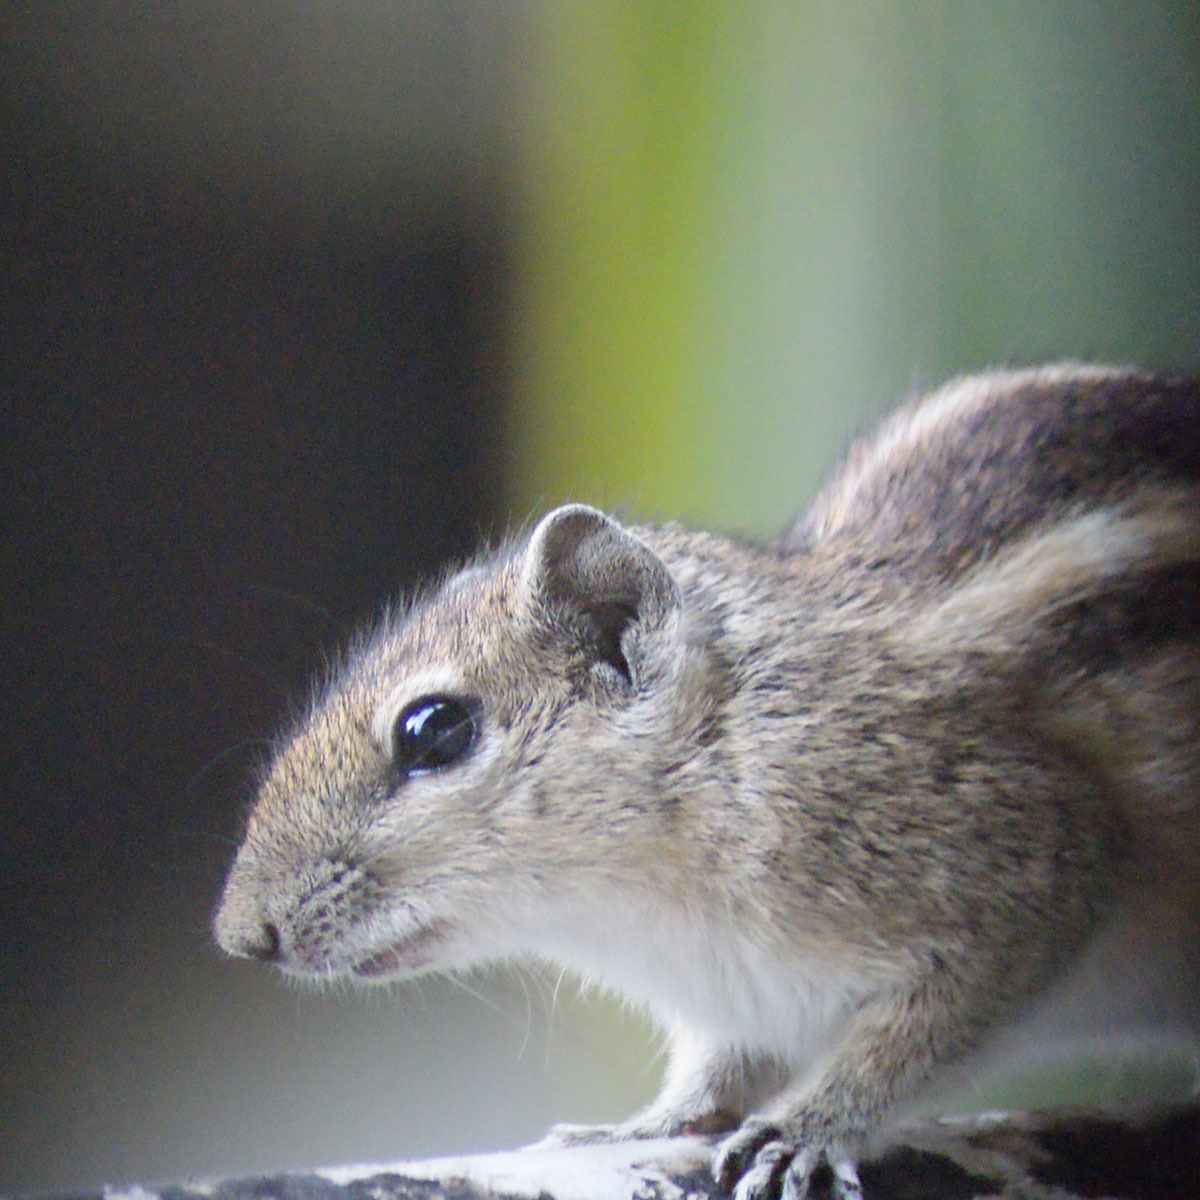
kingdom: Animalia
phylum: Chordata
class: Mammalia
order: Rodentia
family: Sciuridae
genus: Funambulus
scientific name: Funambulus palmarum
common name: Indian palm squirrel
